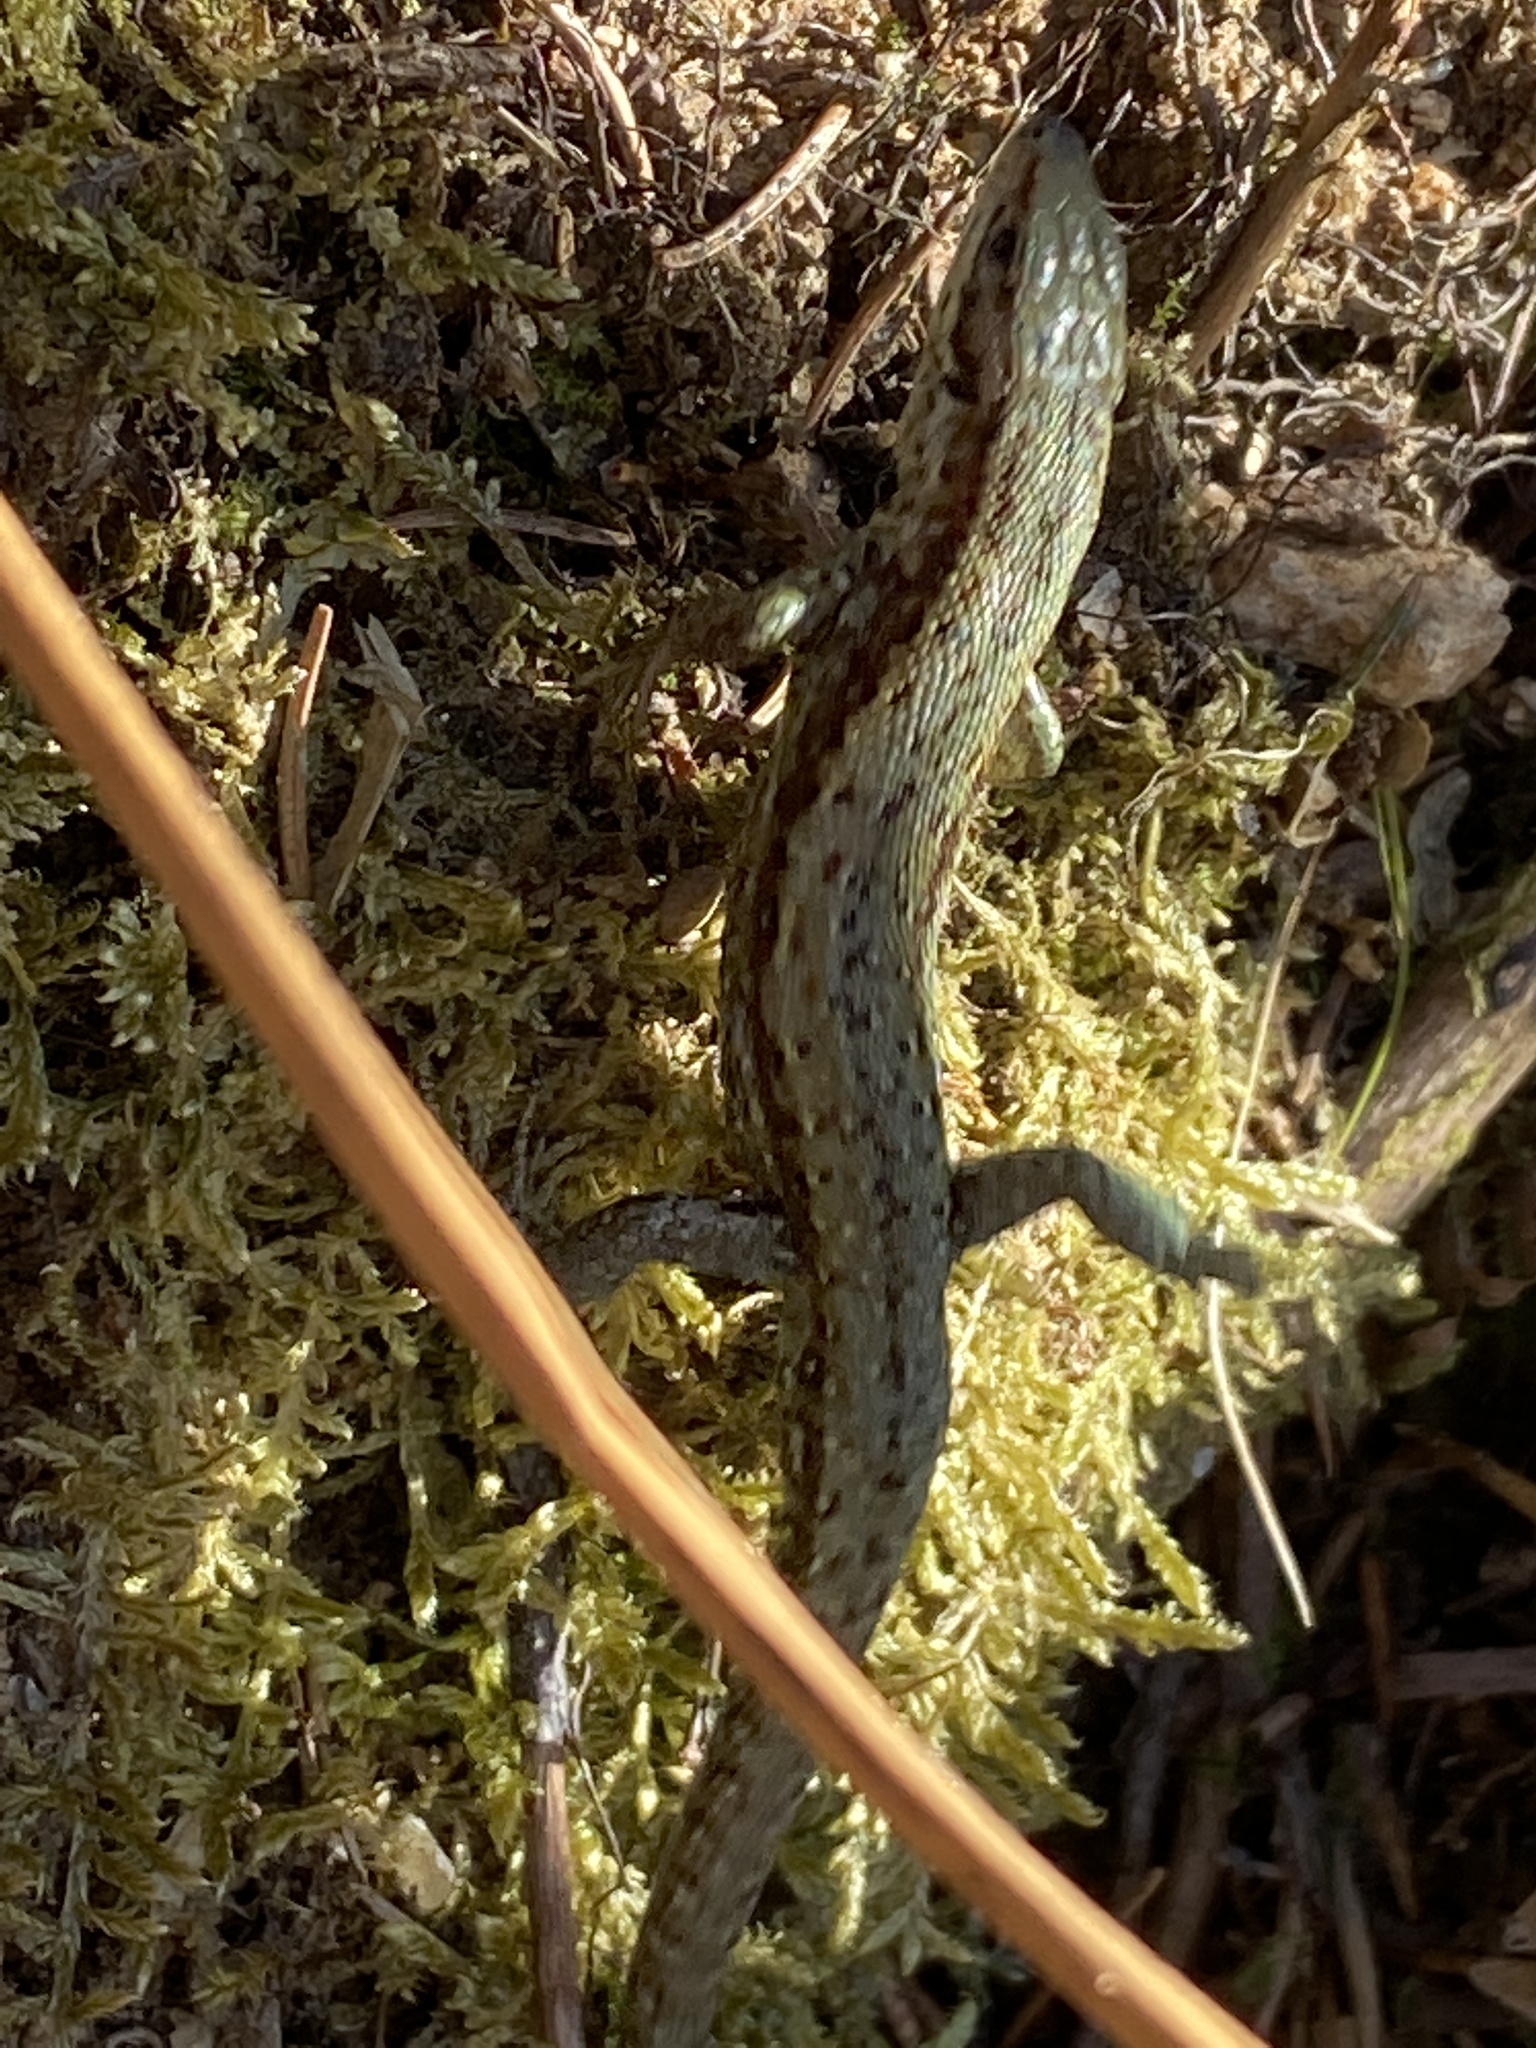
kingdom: Animalia
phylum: Chordata
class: Squamata
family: Lacertidae
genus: Zootoca
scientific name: Zootoca vivipara
